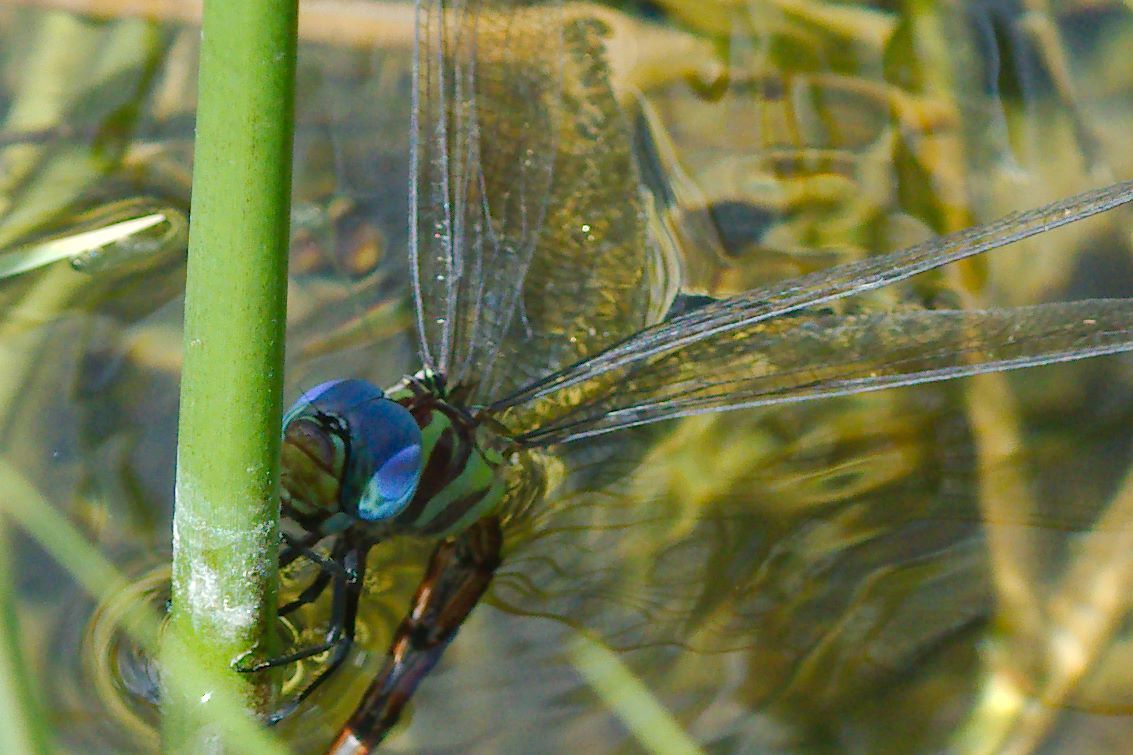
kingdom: Animalia
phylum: Arthropoda
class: Insecta
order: Odonata
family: Aeshnidae
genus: Coryphaeschna
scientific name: Coryphaeschna ingens
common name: Regal darner
